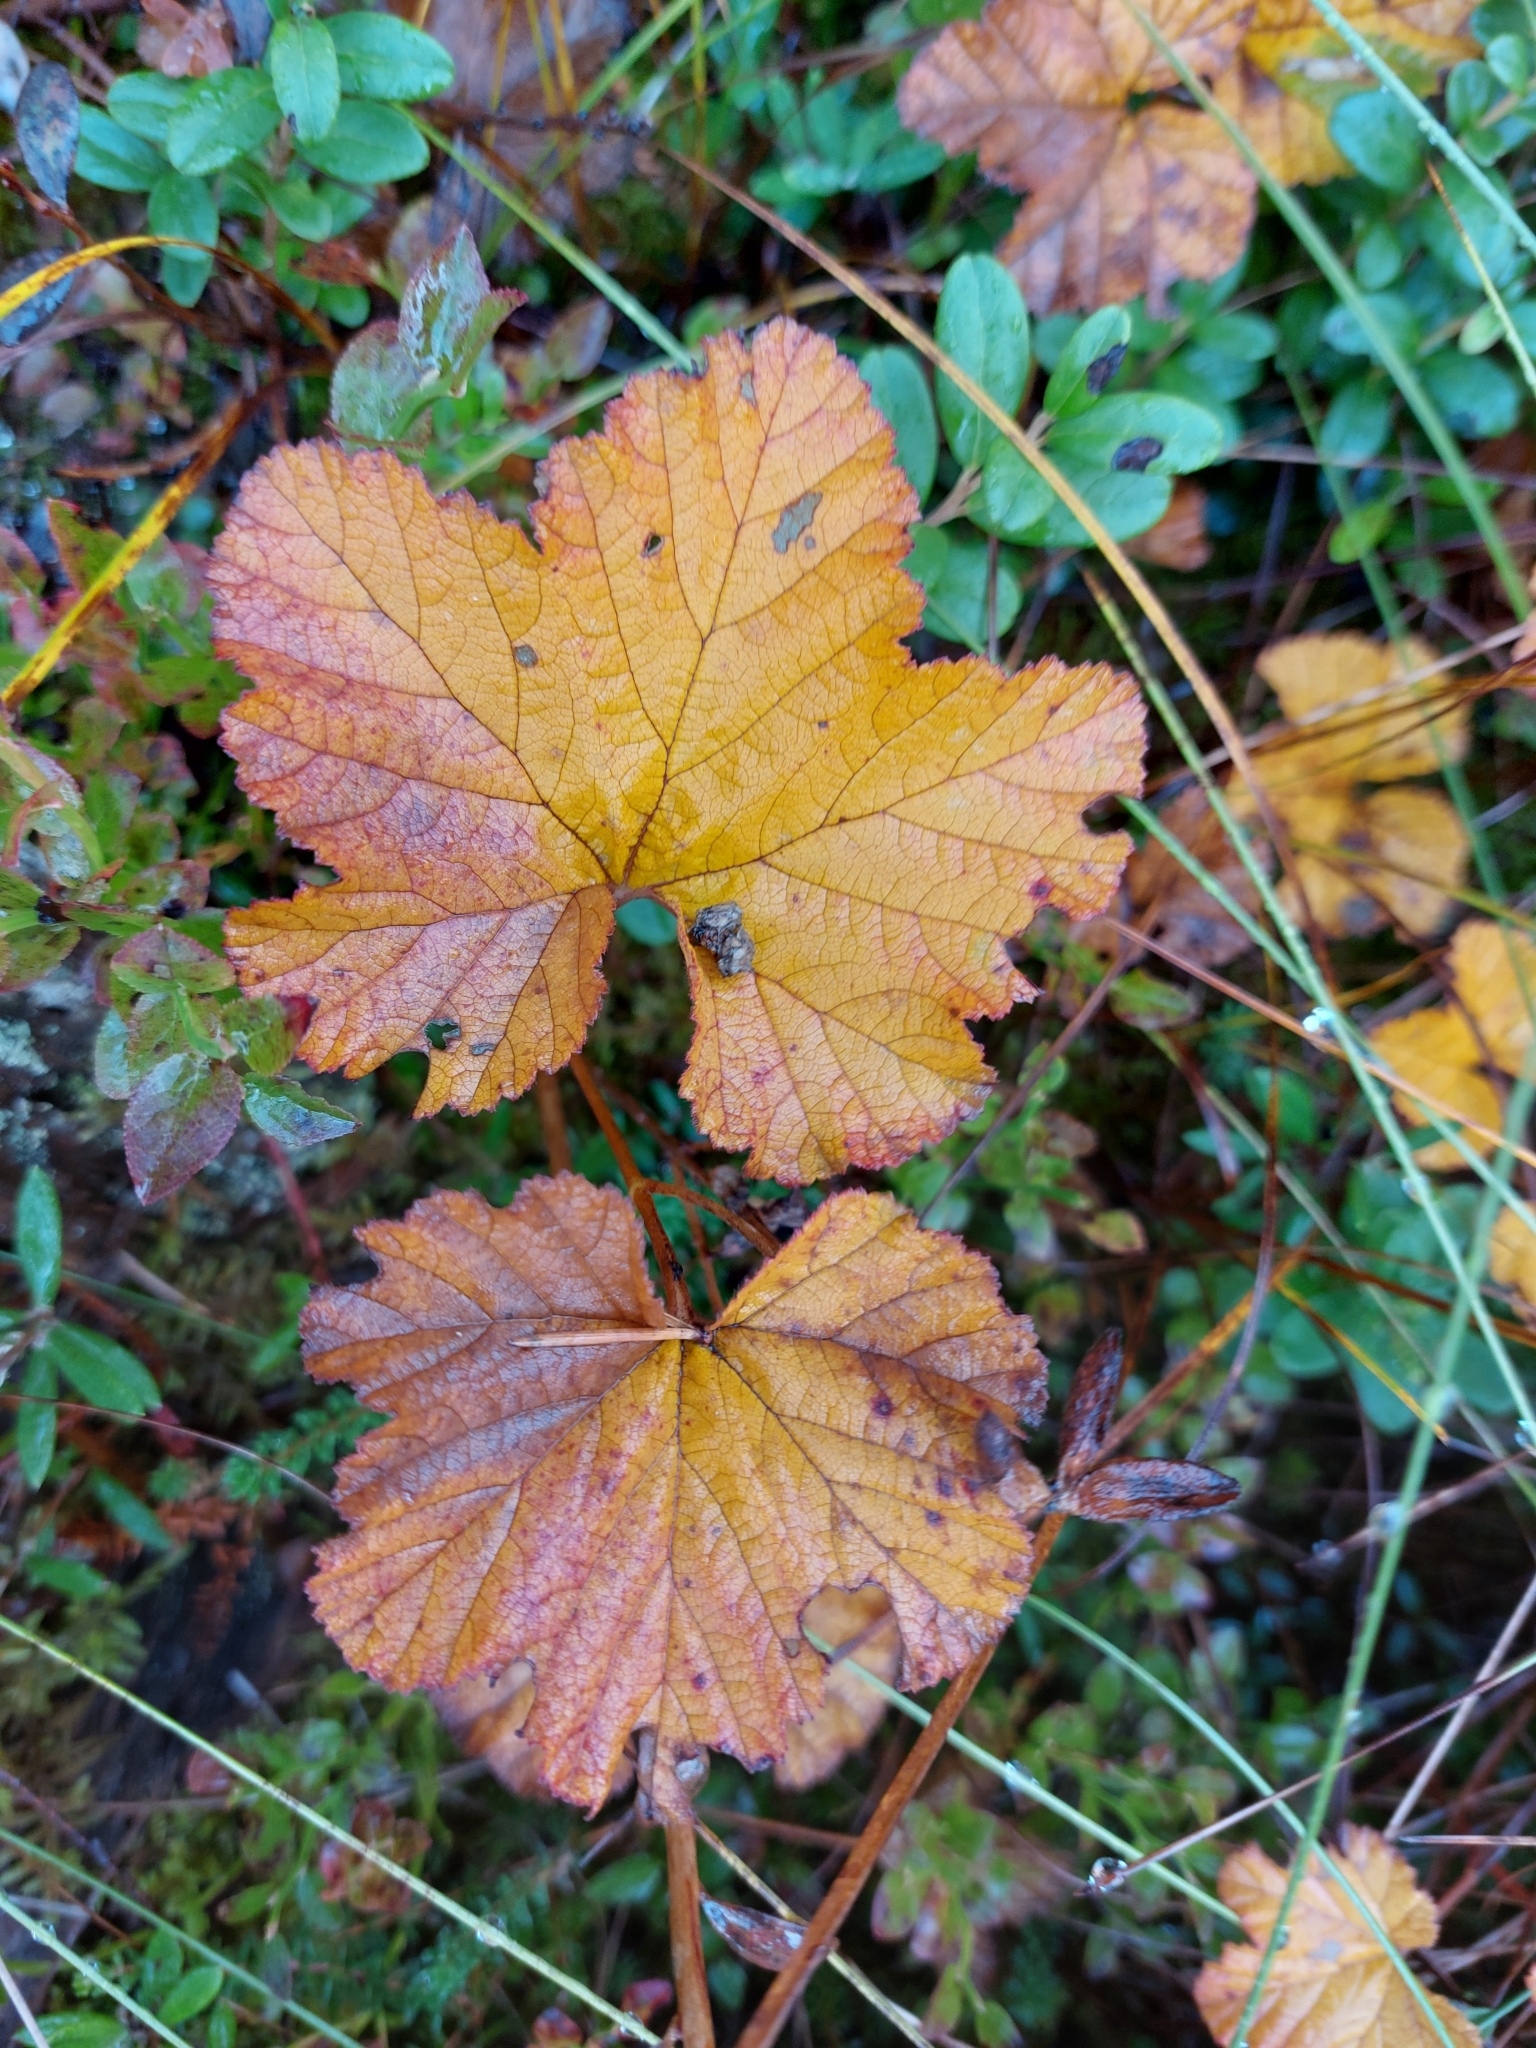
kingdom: Plantae
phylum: Tracheophyta
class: Magnoliopsida
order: Rosales
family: Rosaceae
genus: Rubus
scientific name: Rubus chamaemorus
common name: Cloudberry
